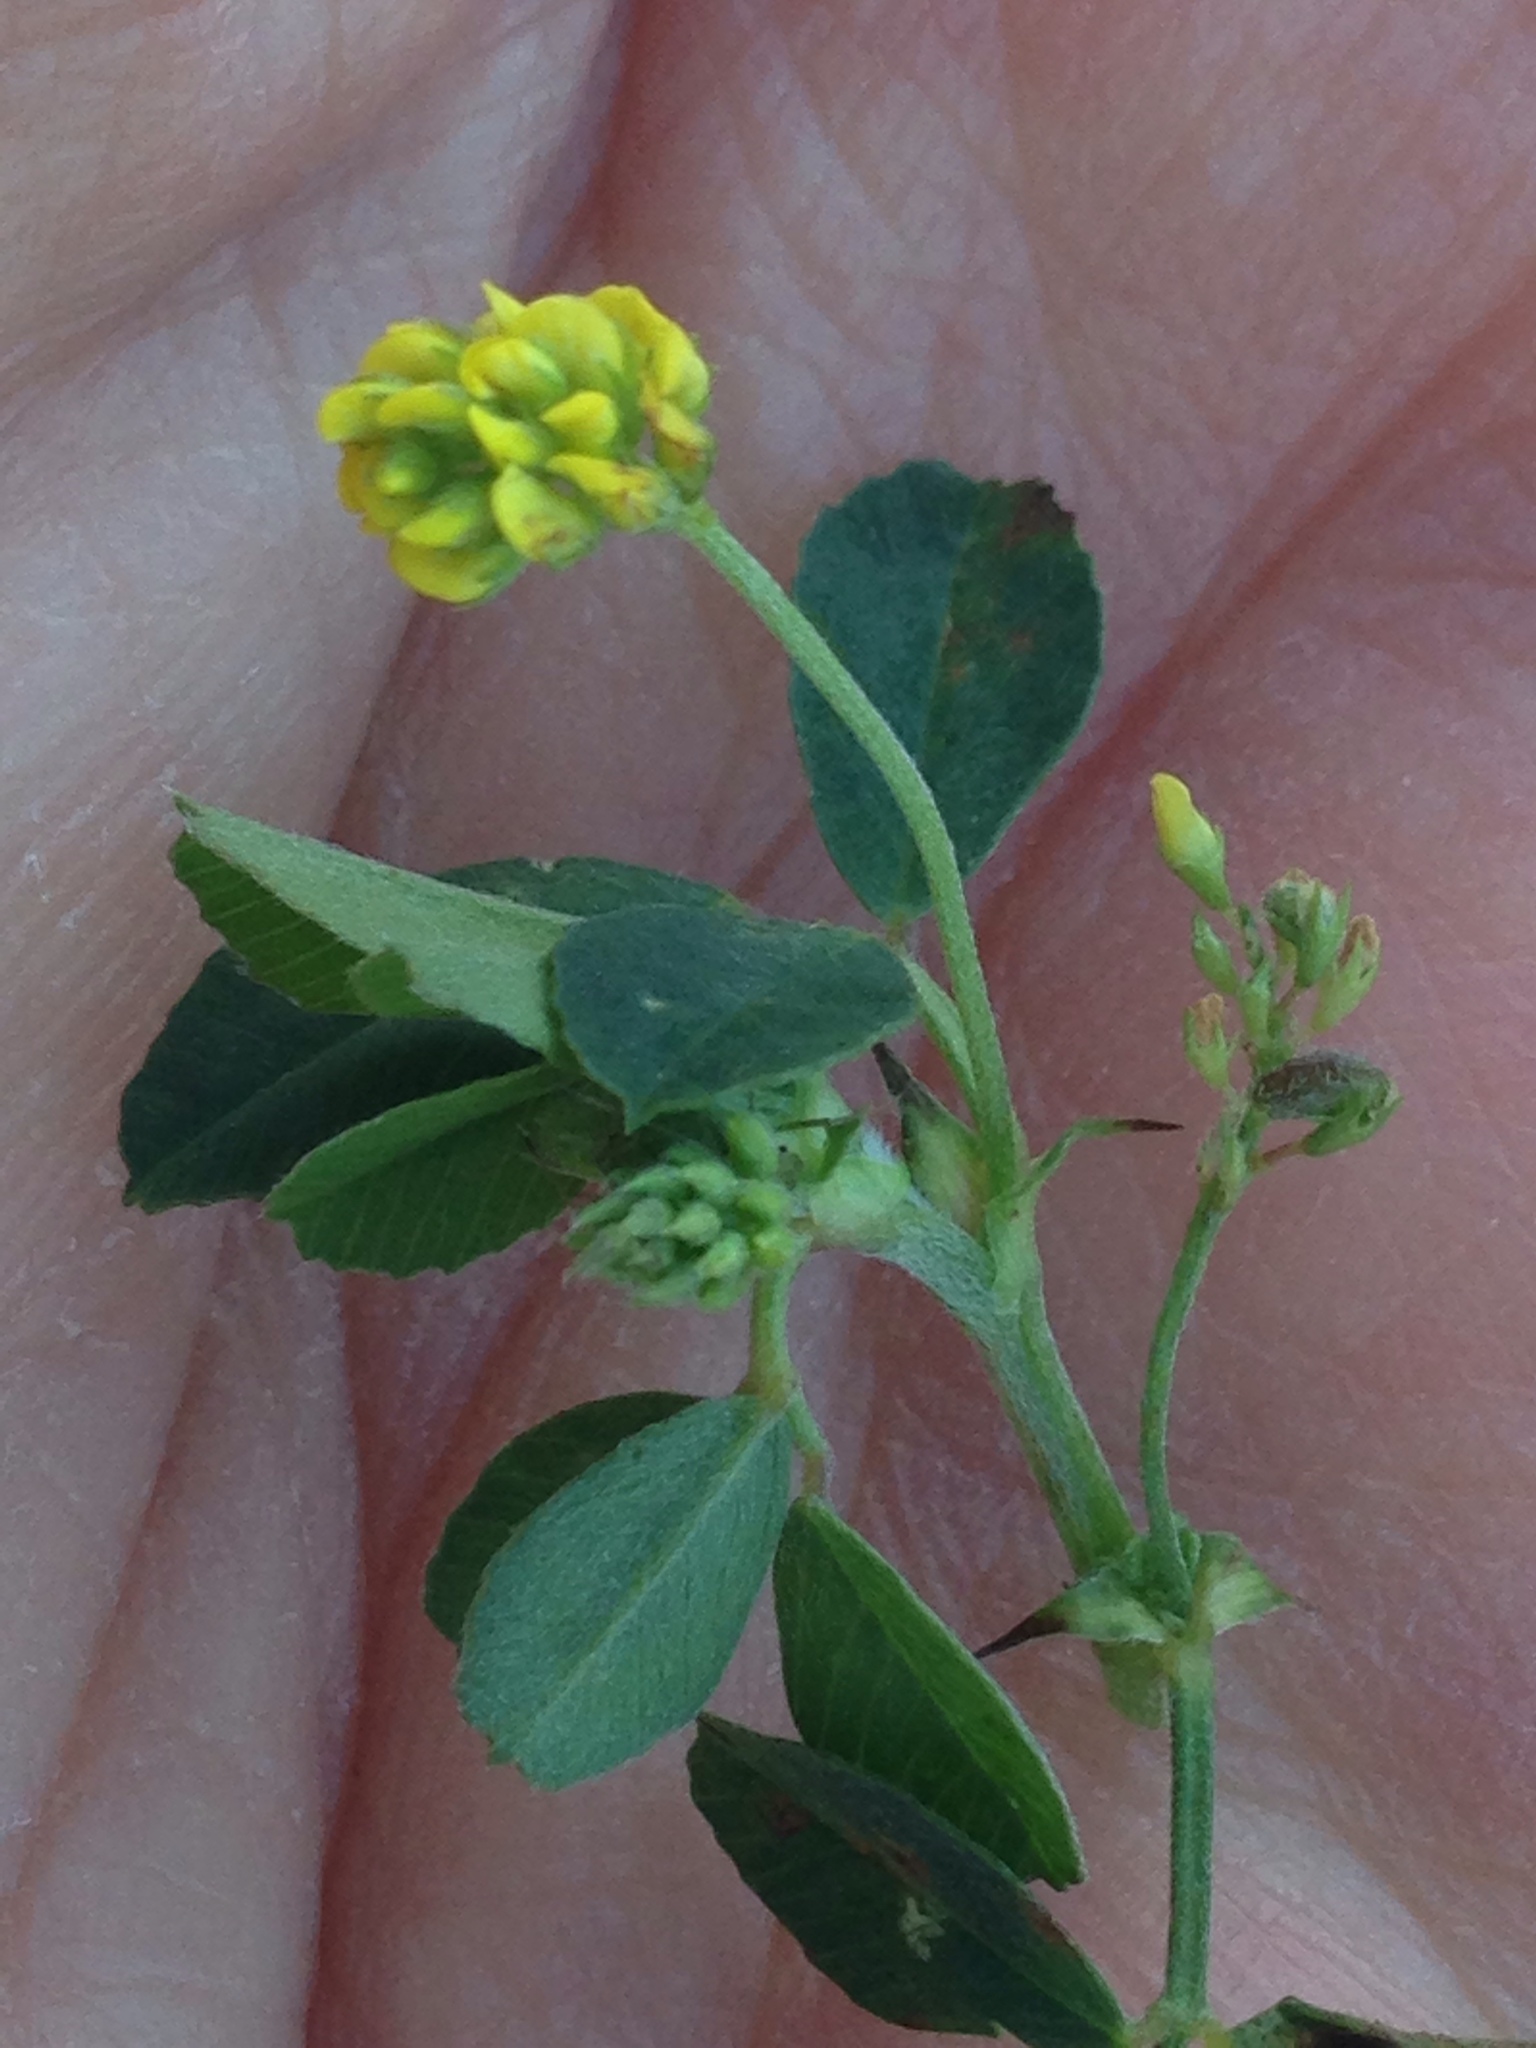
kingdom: Plantae
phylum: Tracheophyta
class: Magnoliopsida
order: Fabales
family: Fabaceae
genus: Medicago
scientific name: Medicago lupulina
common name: Black medick
